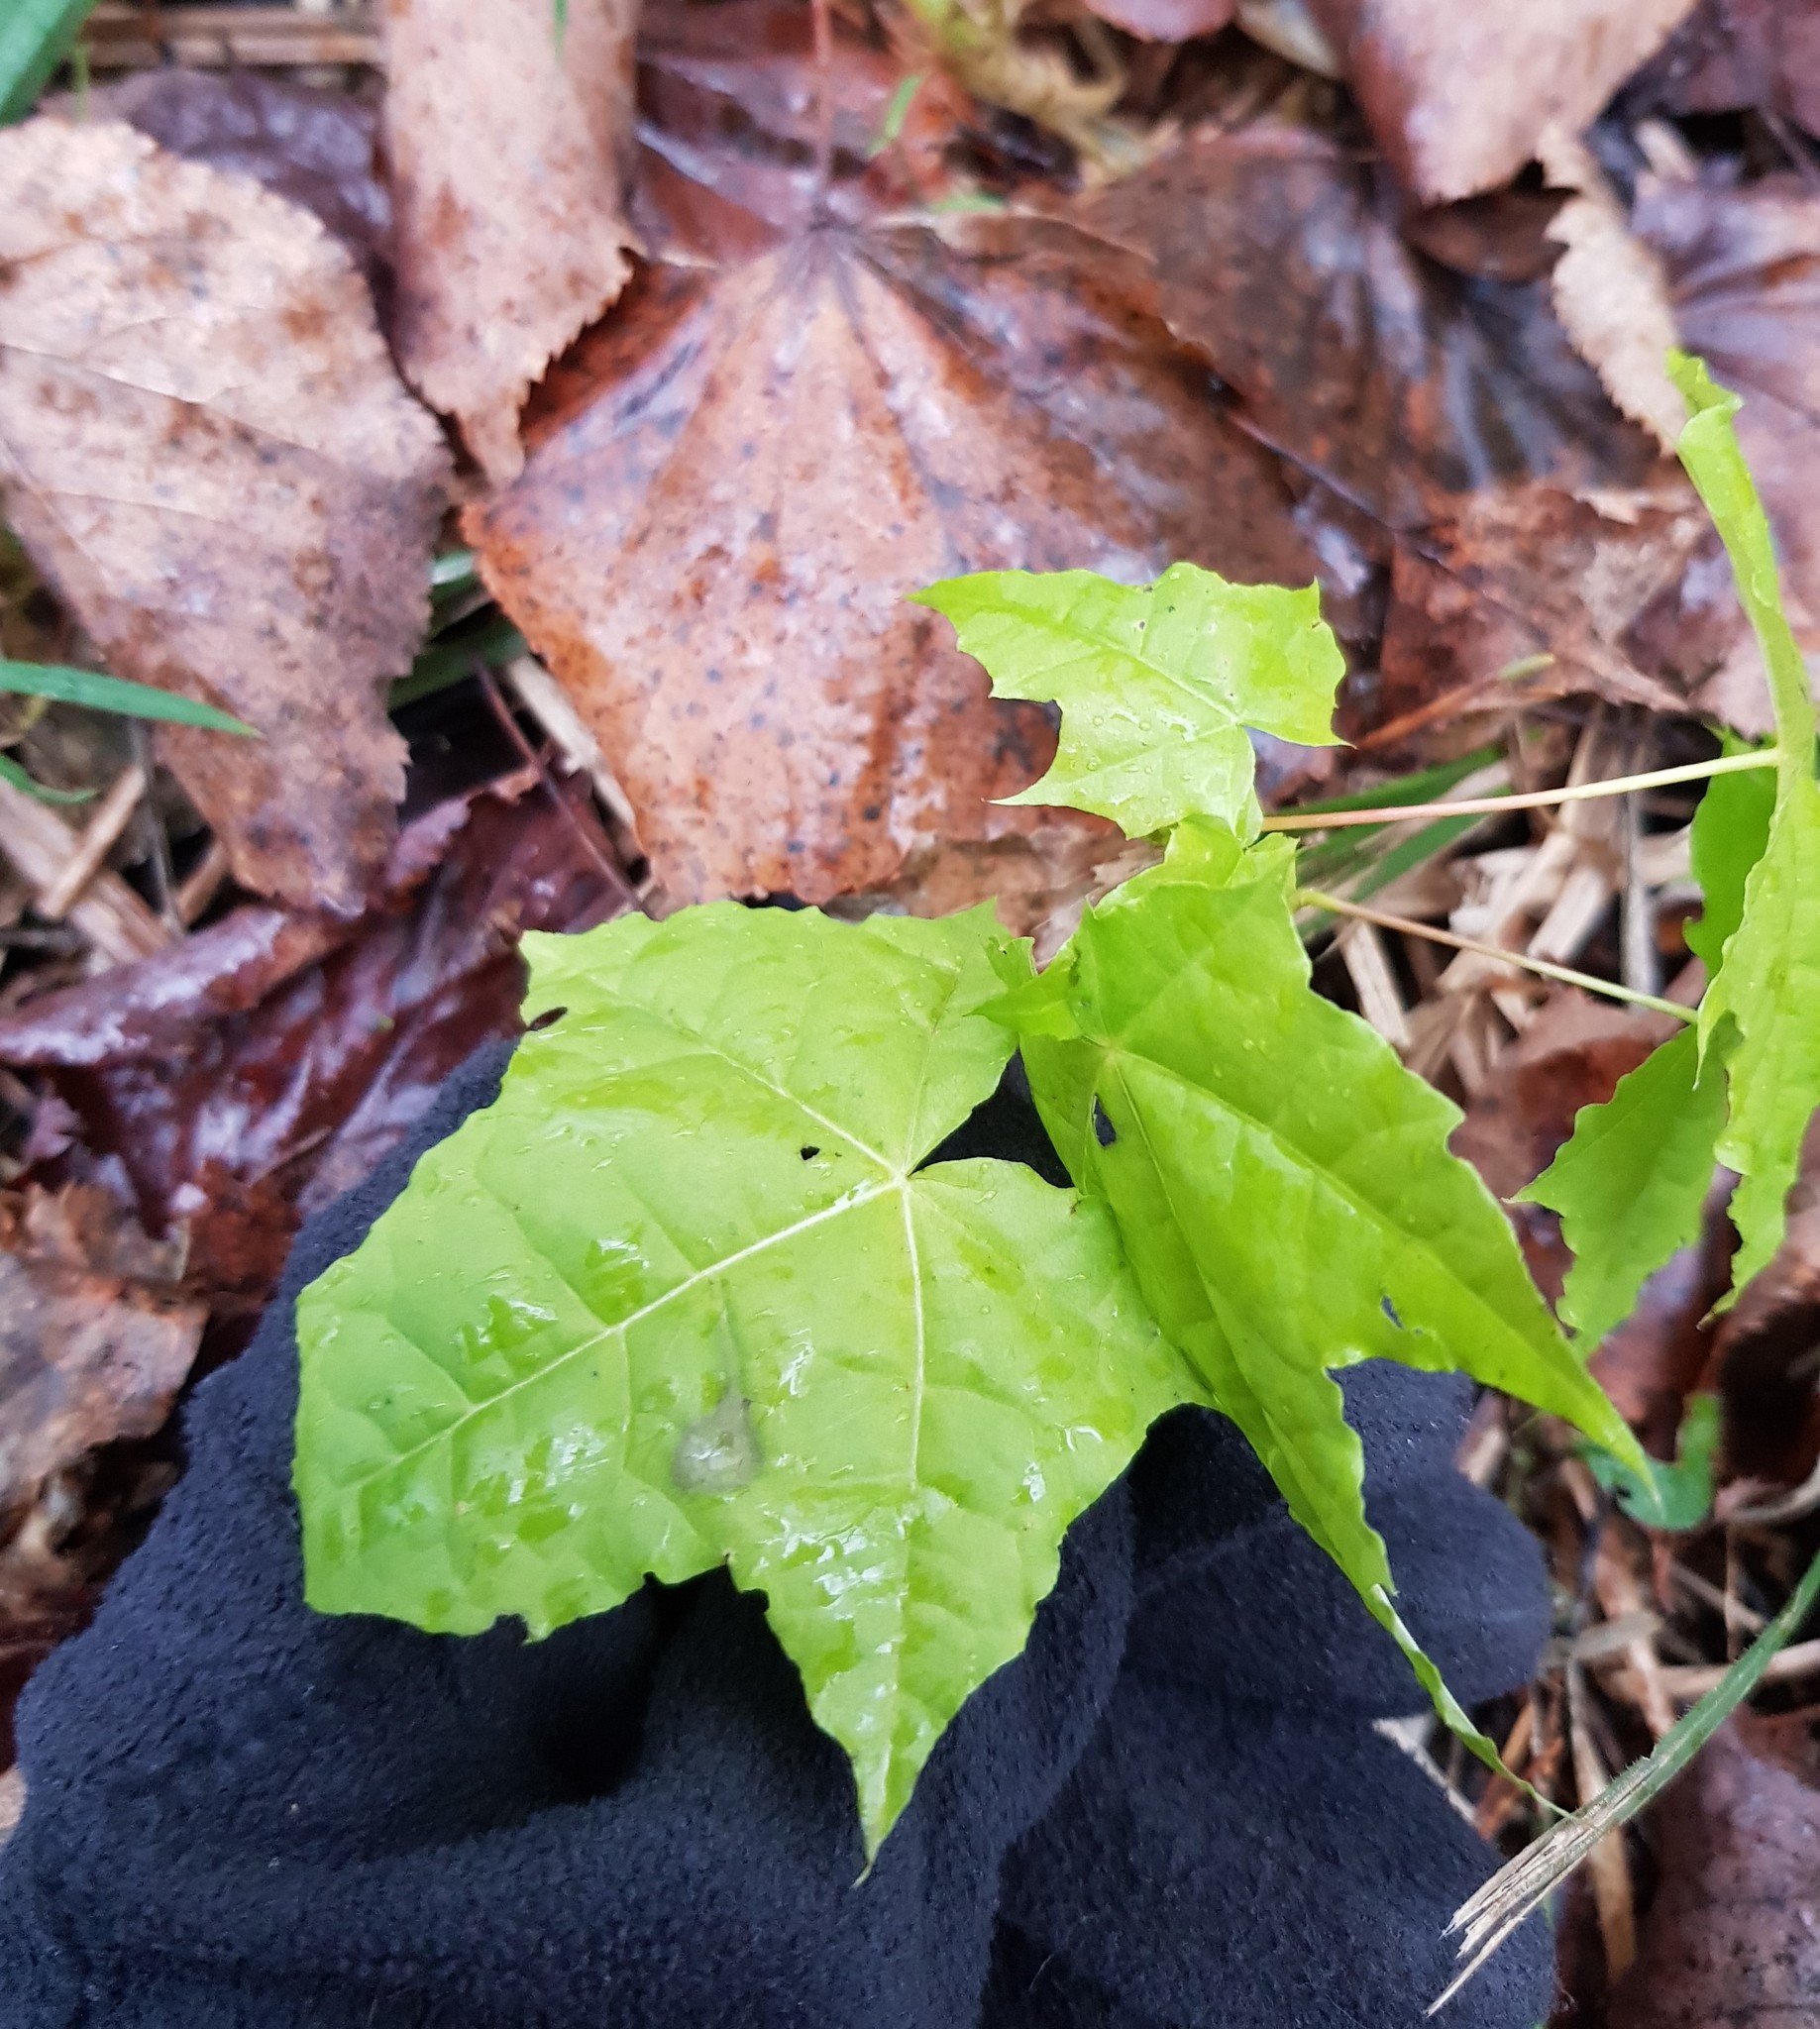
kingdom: Plantae
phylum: Tracheophyta
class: Magnoliopsida
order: Sapindales
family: Sapindaceae
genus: Acer
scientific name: Acer platanoides
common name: Norway maple
